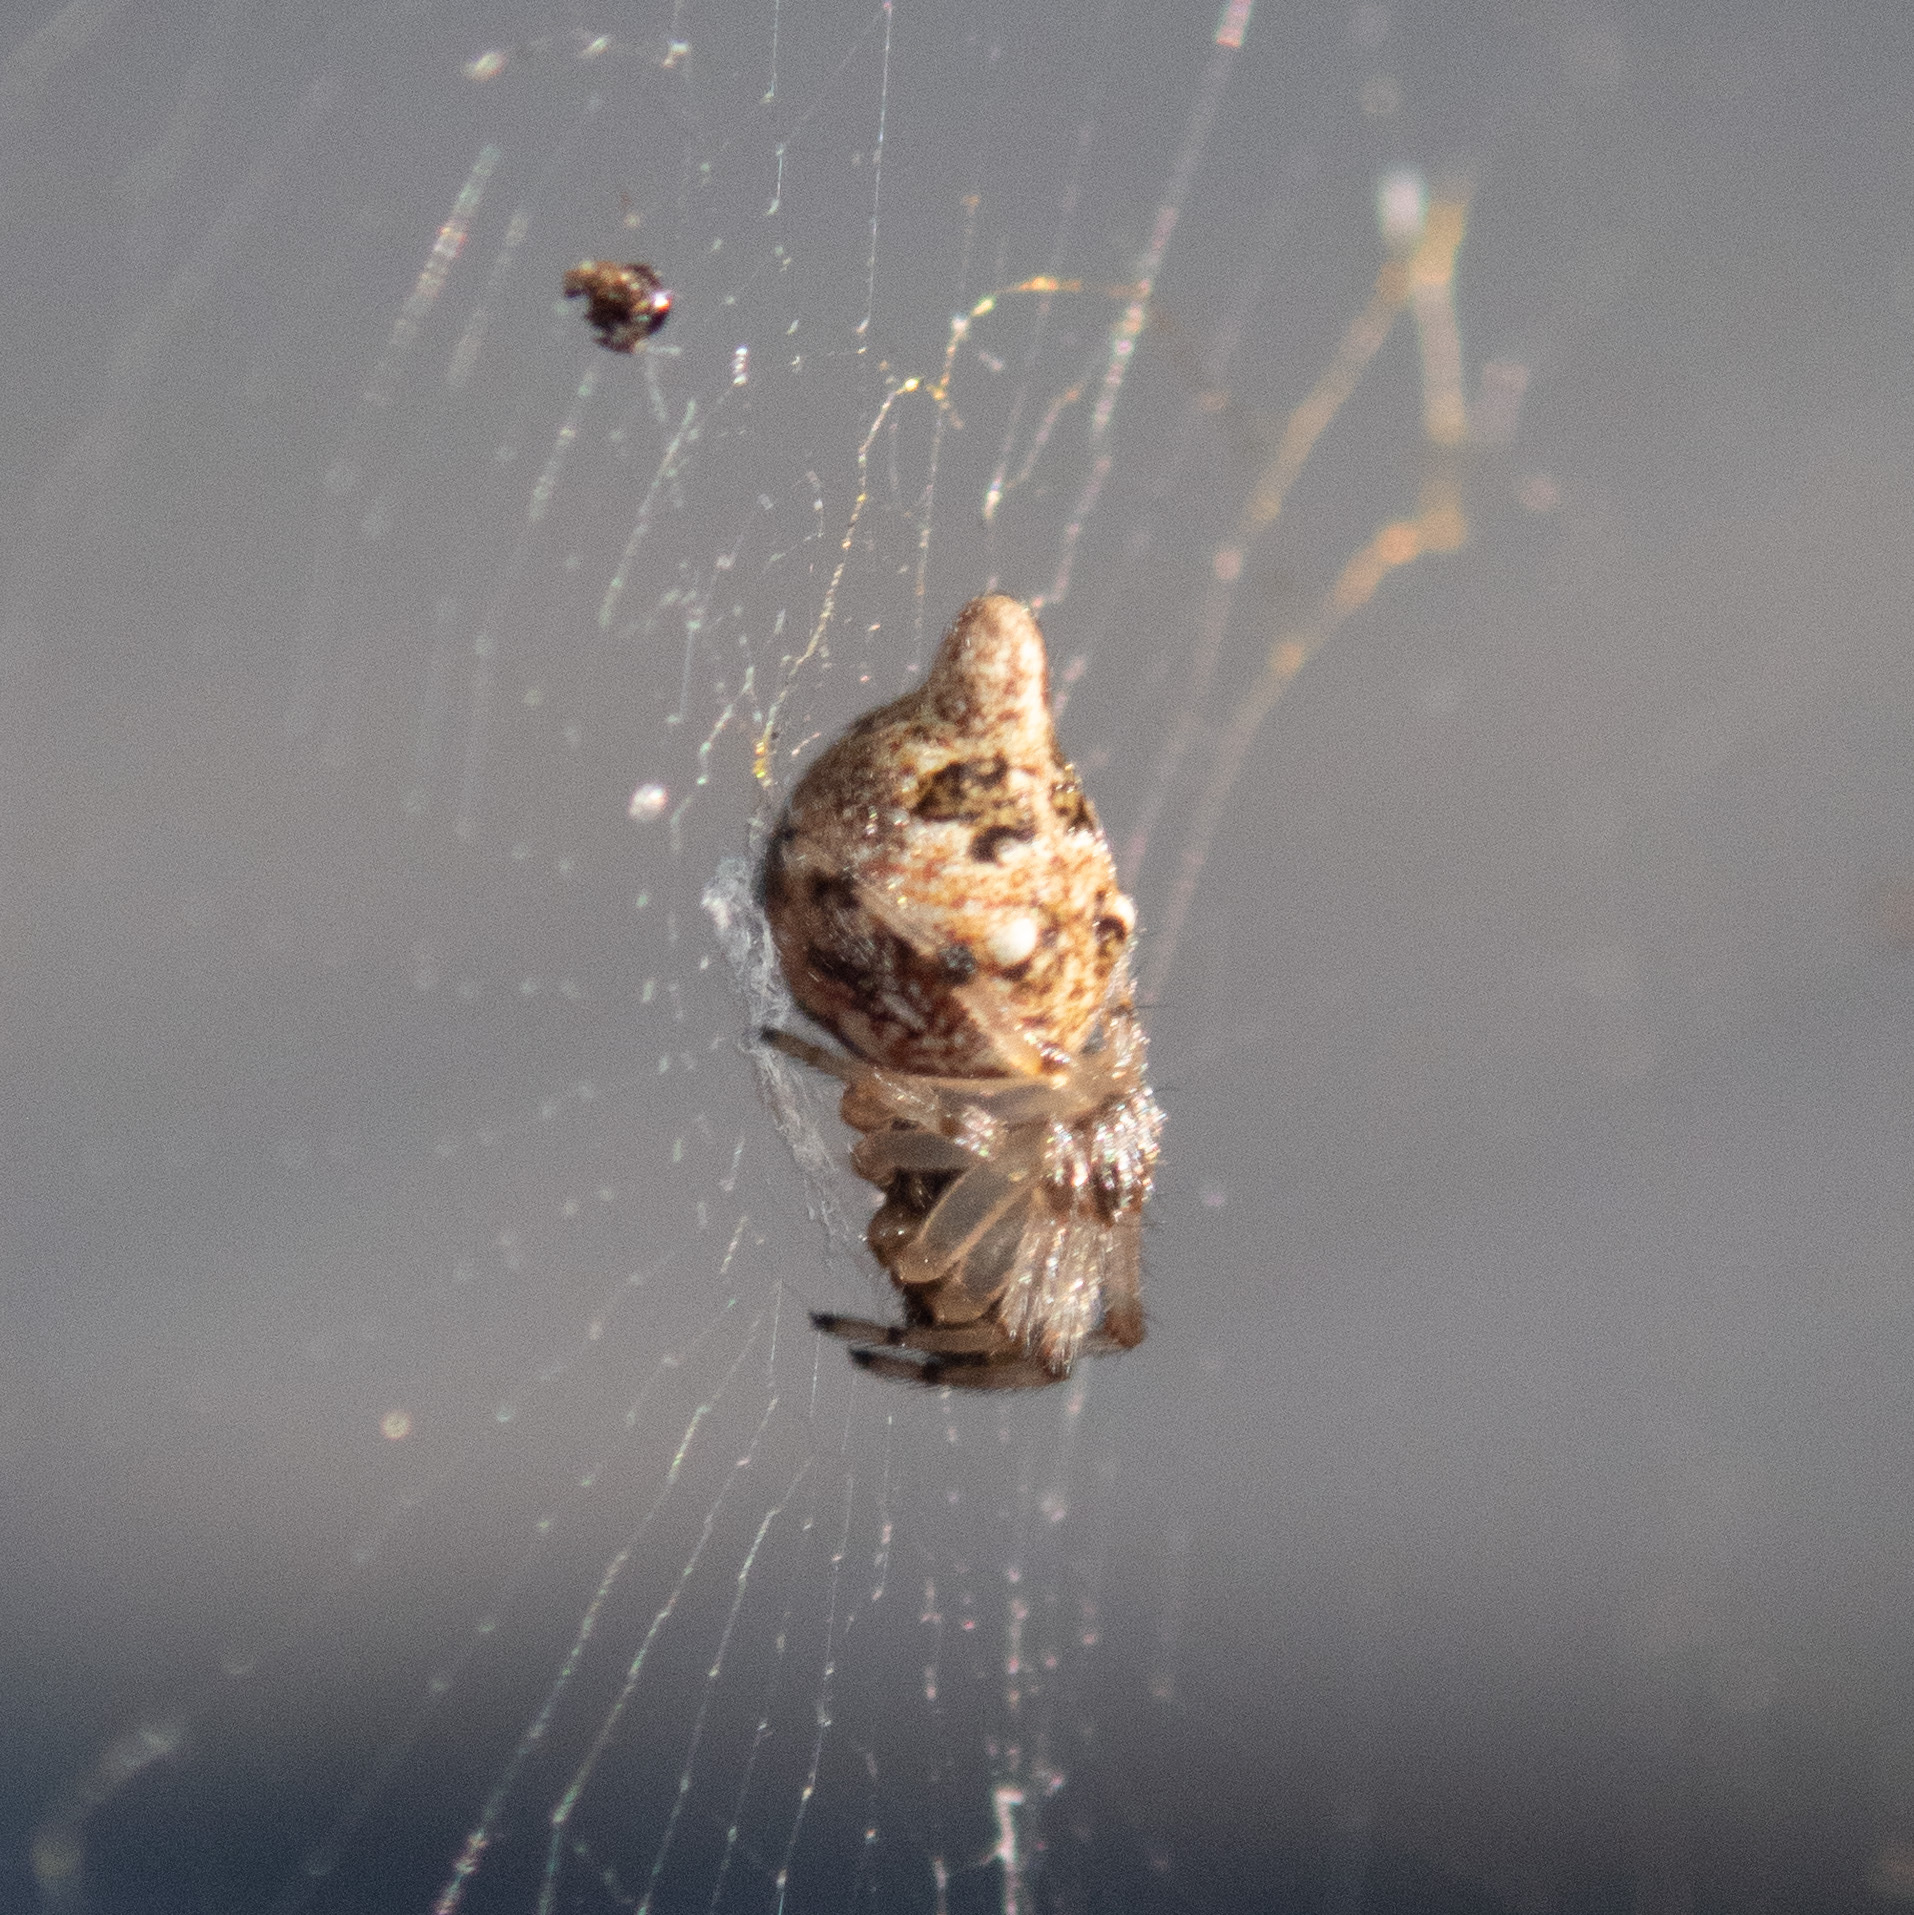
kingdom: Animalia
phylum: Arthropoda
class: Arachnida
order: Araneae
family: Araneidae
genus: Cyclosa
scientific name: Cyclosa turbinata
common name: Orb weavers
